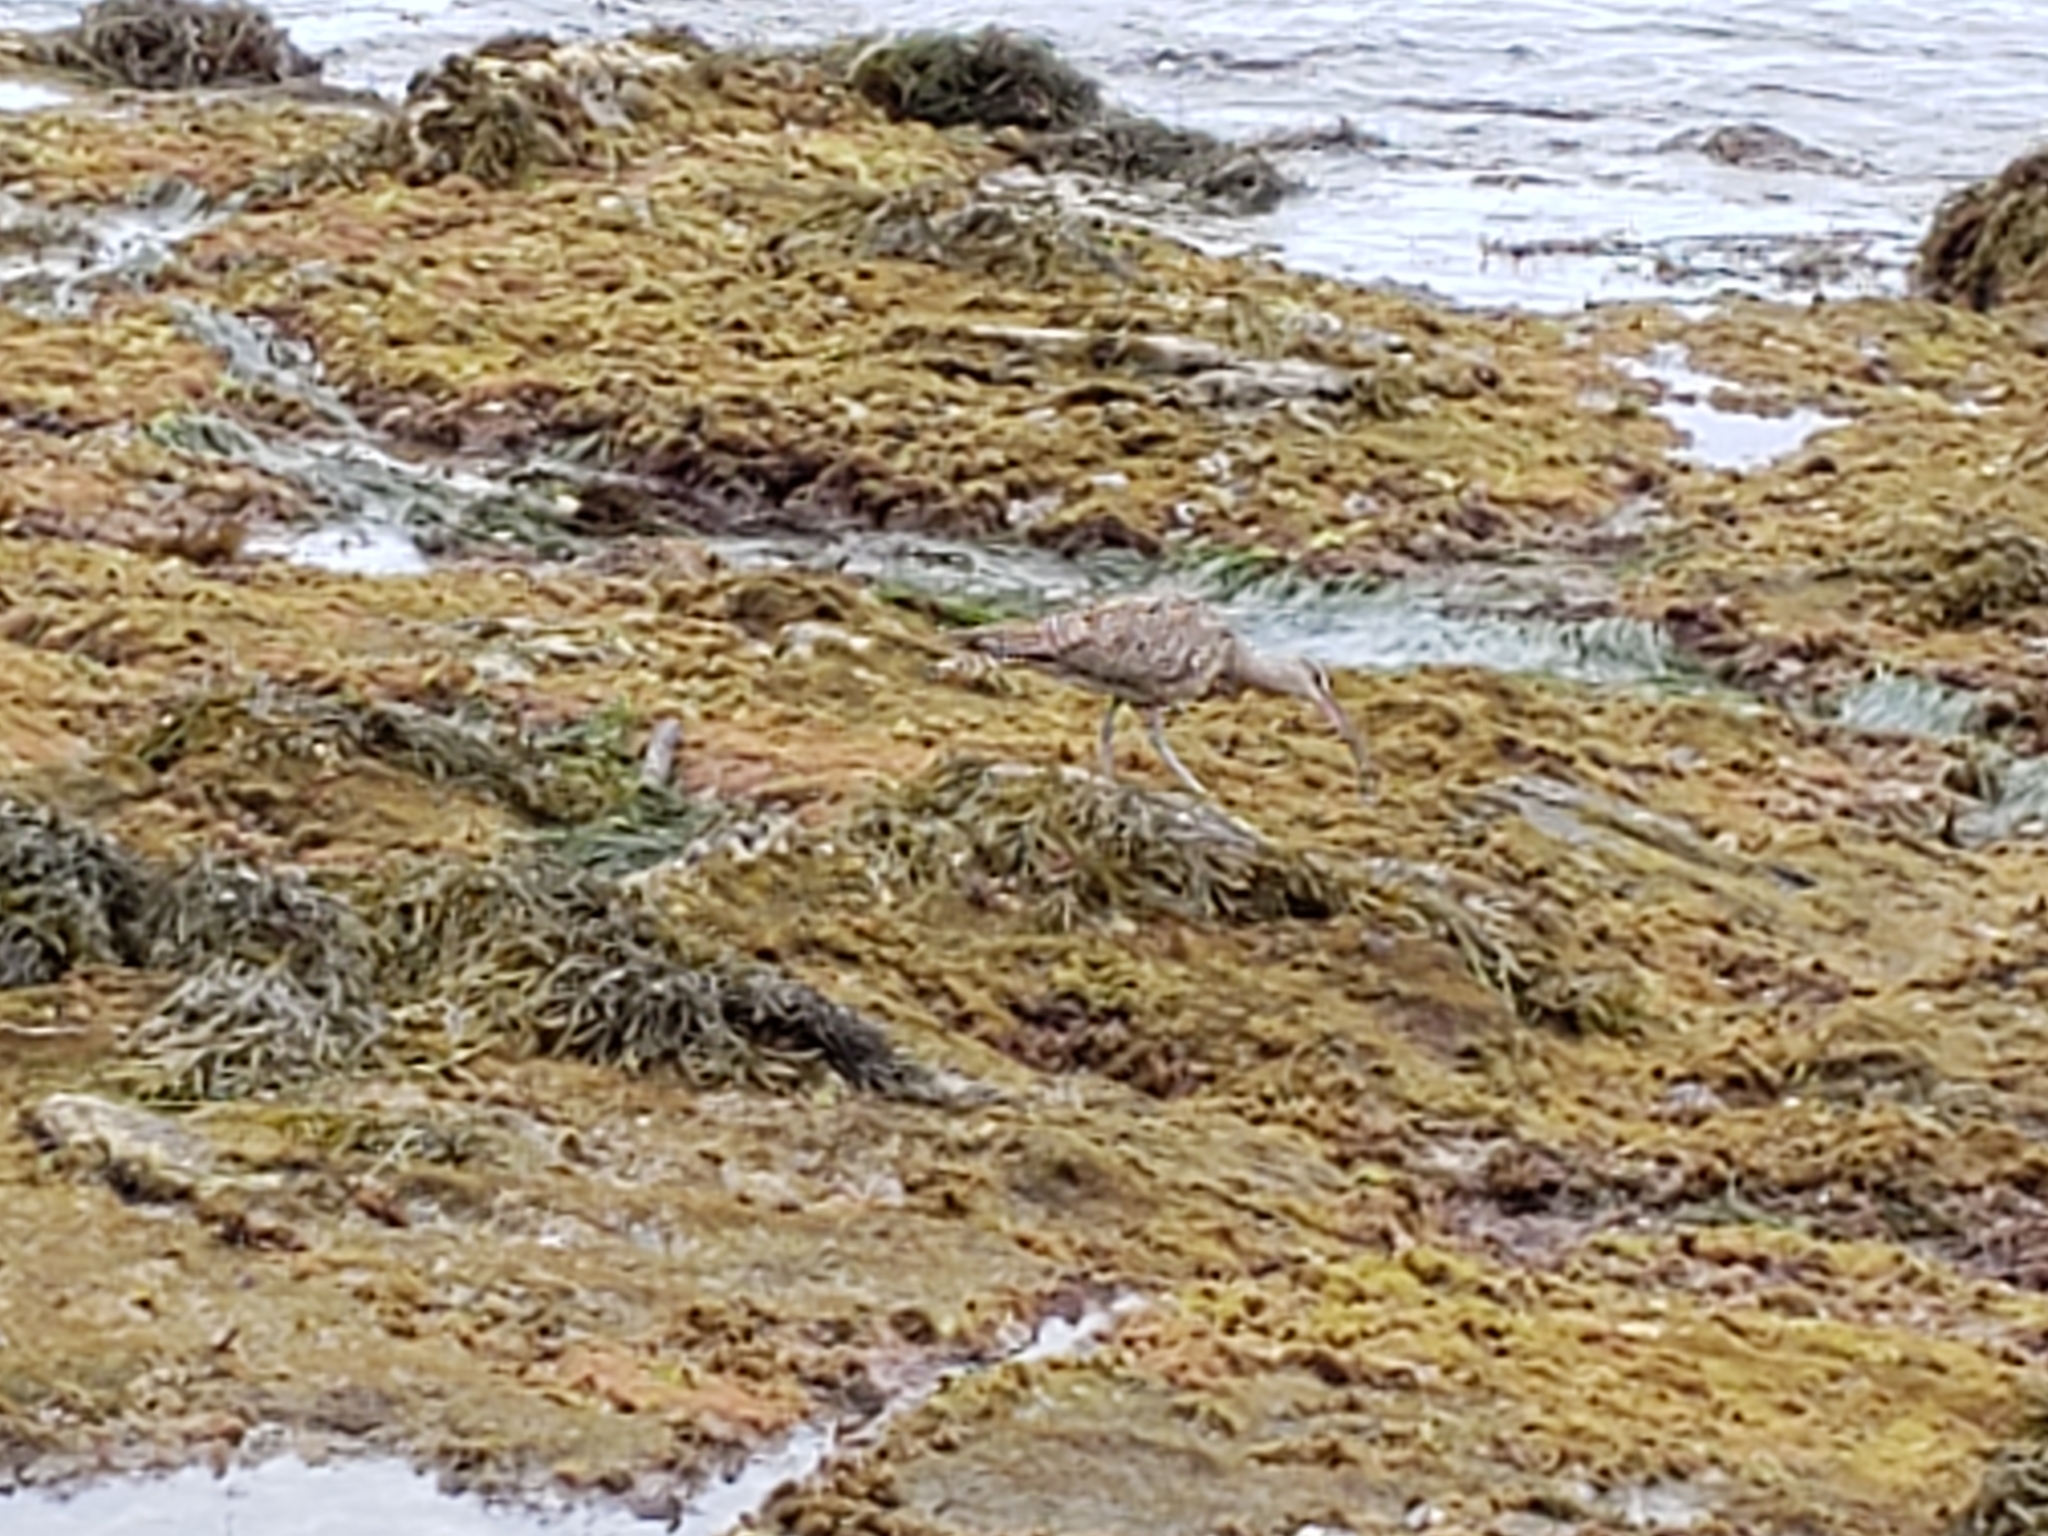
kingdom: Animalia
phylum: Chordata
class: Aves
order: Charadriiformes
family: Scolopacidae
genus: Numenius
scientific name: Numenius phaeopus
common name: Whimbrel
